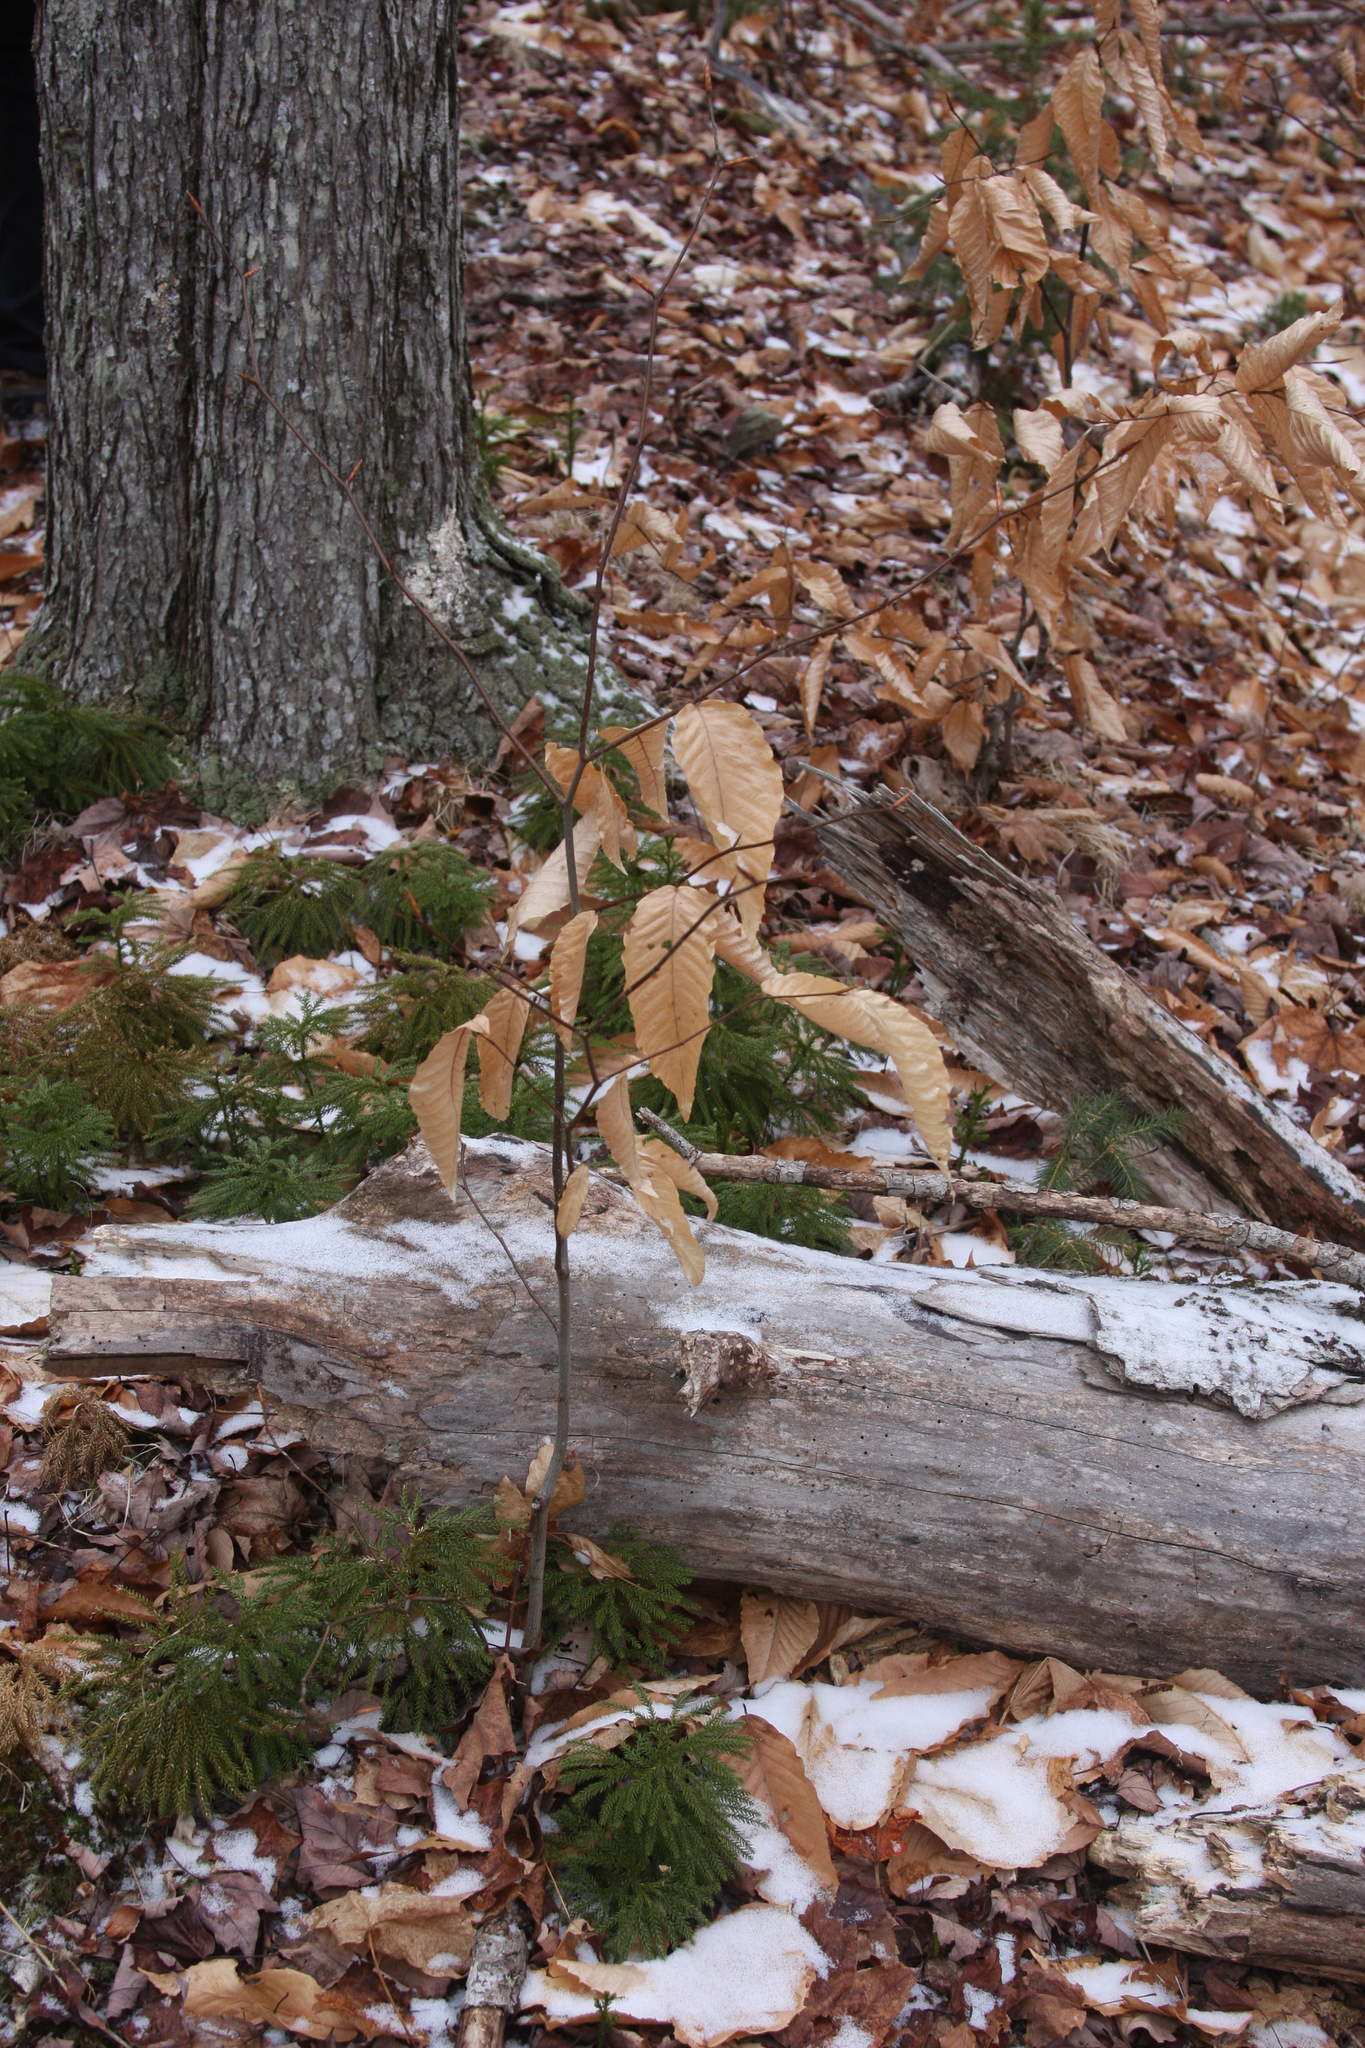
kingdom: Plantae
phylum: Tracheophyta
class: Magnoliopsida
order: Fagales
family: Fagaceae
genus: Fagus
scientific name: Fagus grandifolia
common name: American beech
